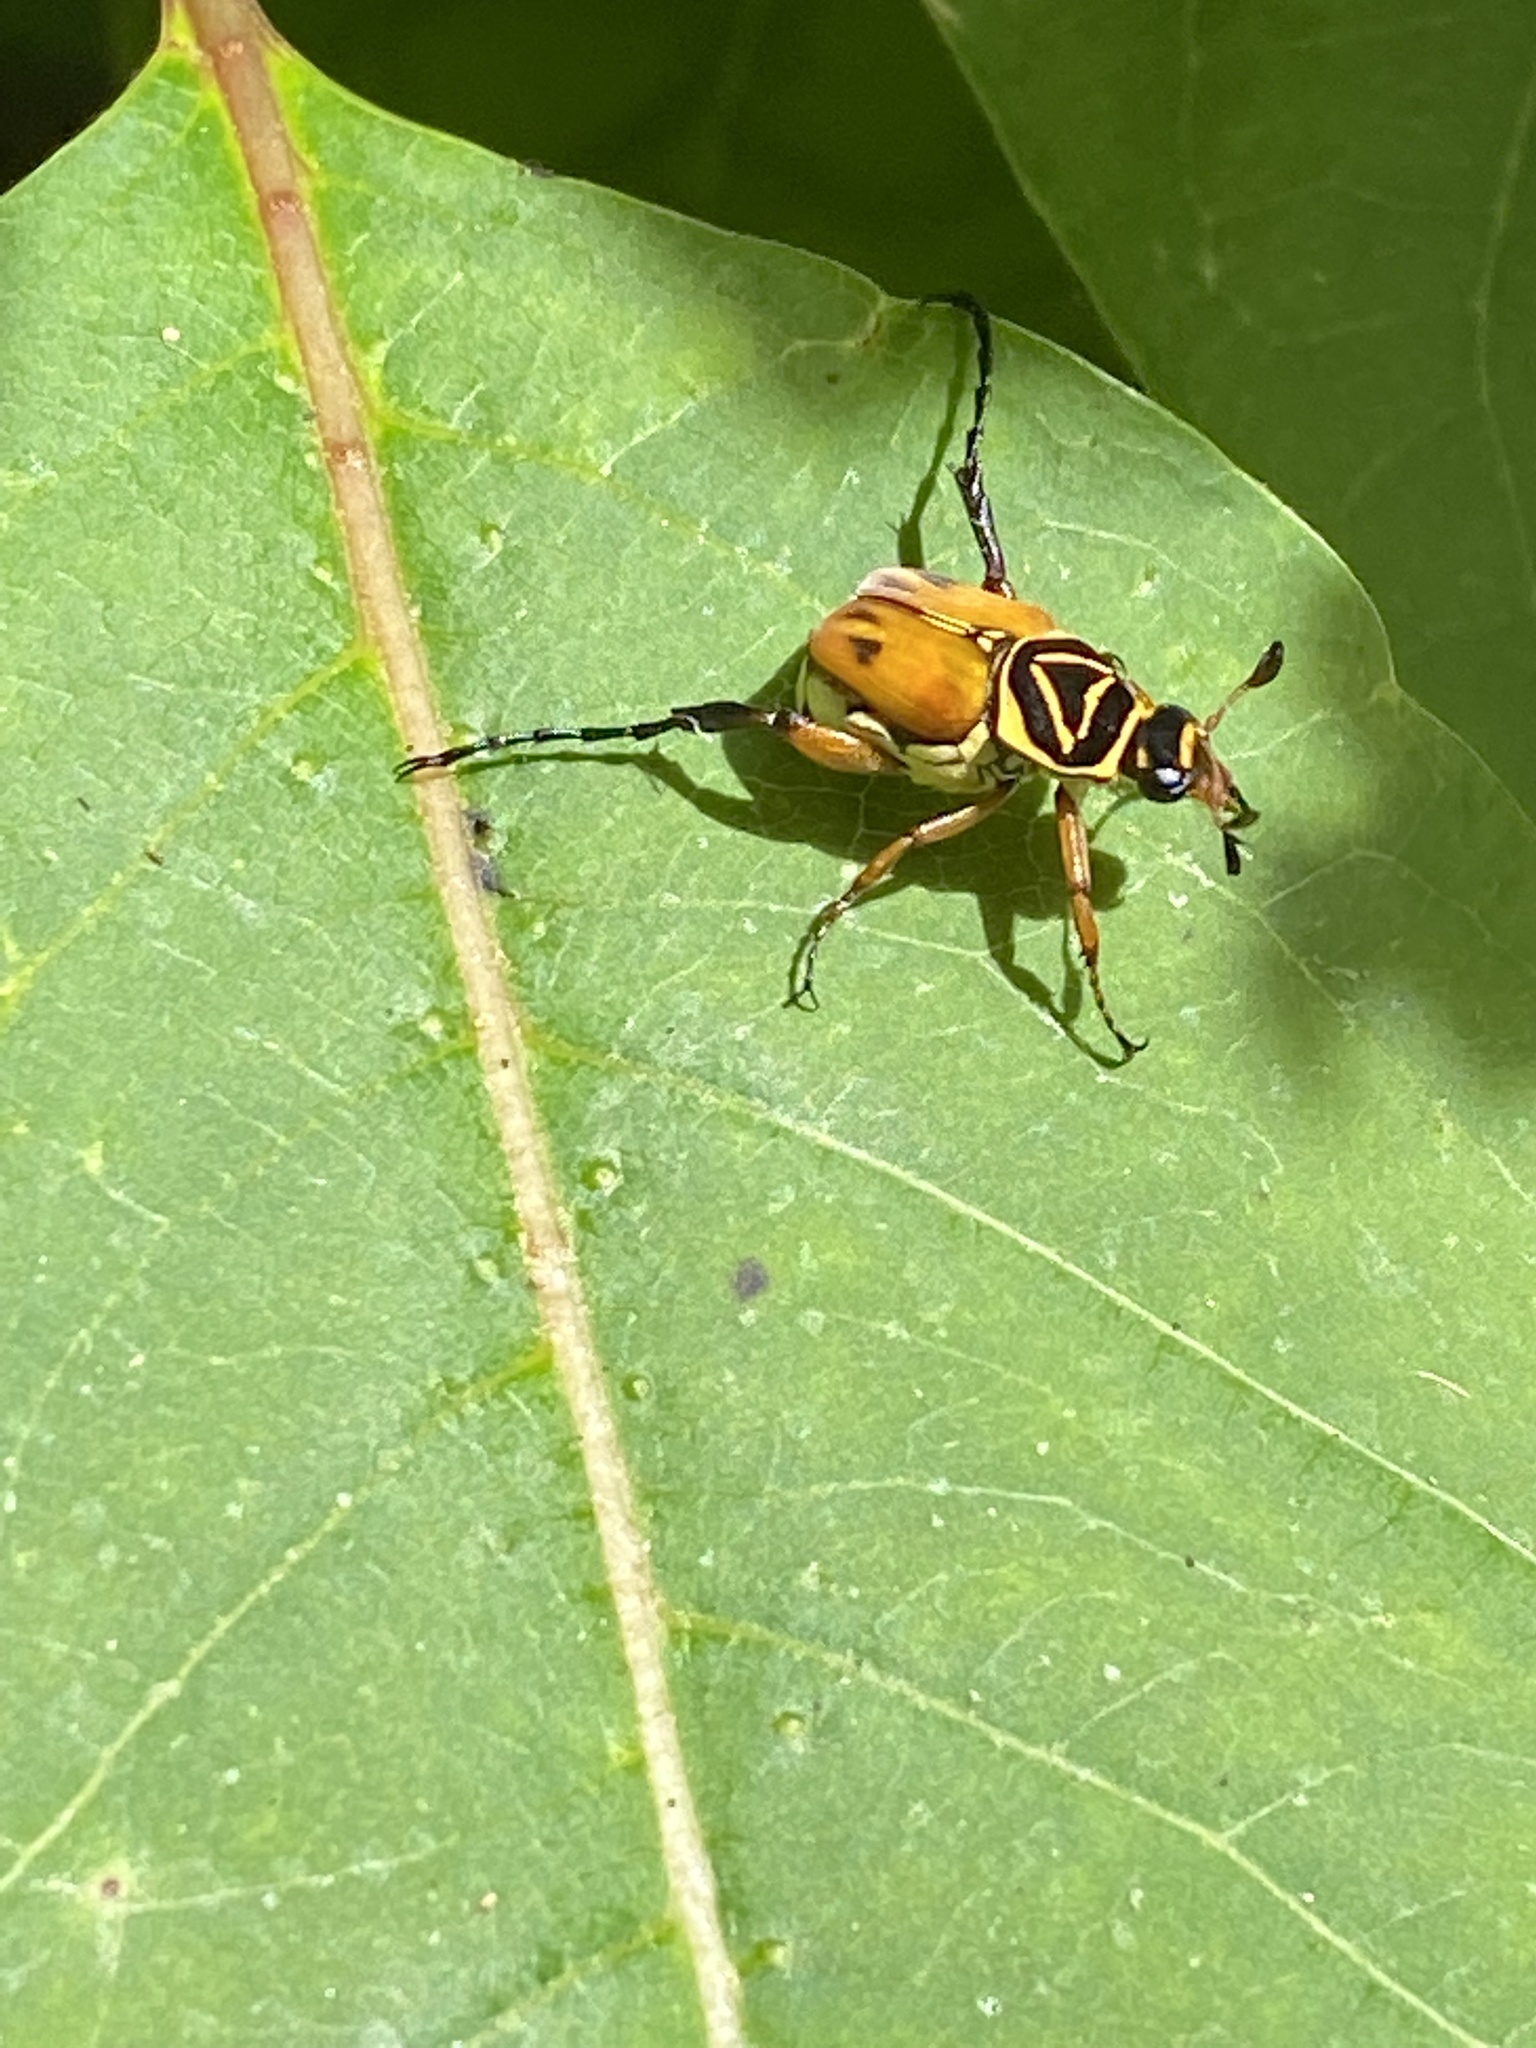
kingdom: Animalia
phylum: Arthropoda
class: Insecta
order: Coleoptera
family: Scarabaeidae
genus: Trigonopeltastes
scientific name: Trigonopeltastes delta
